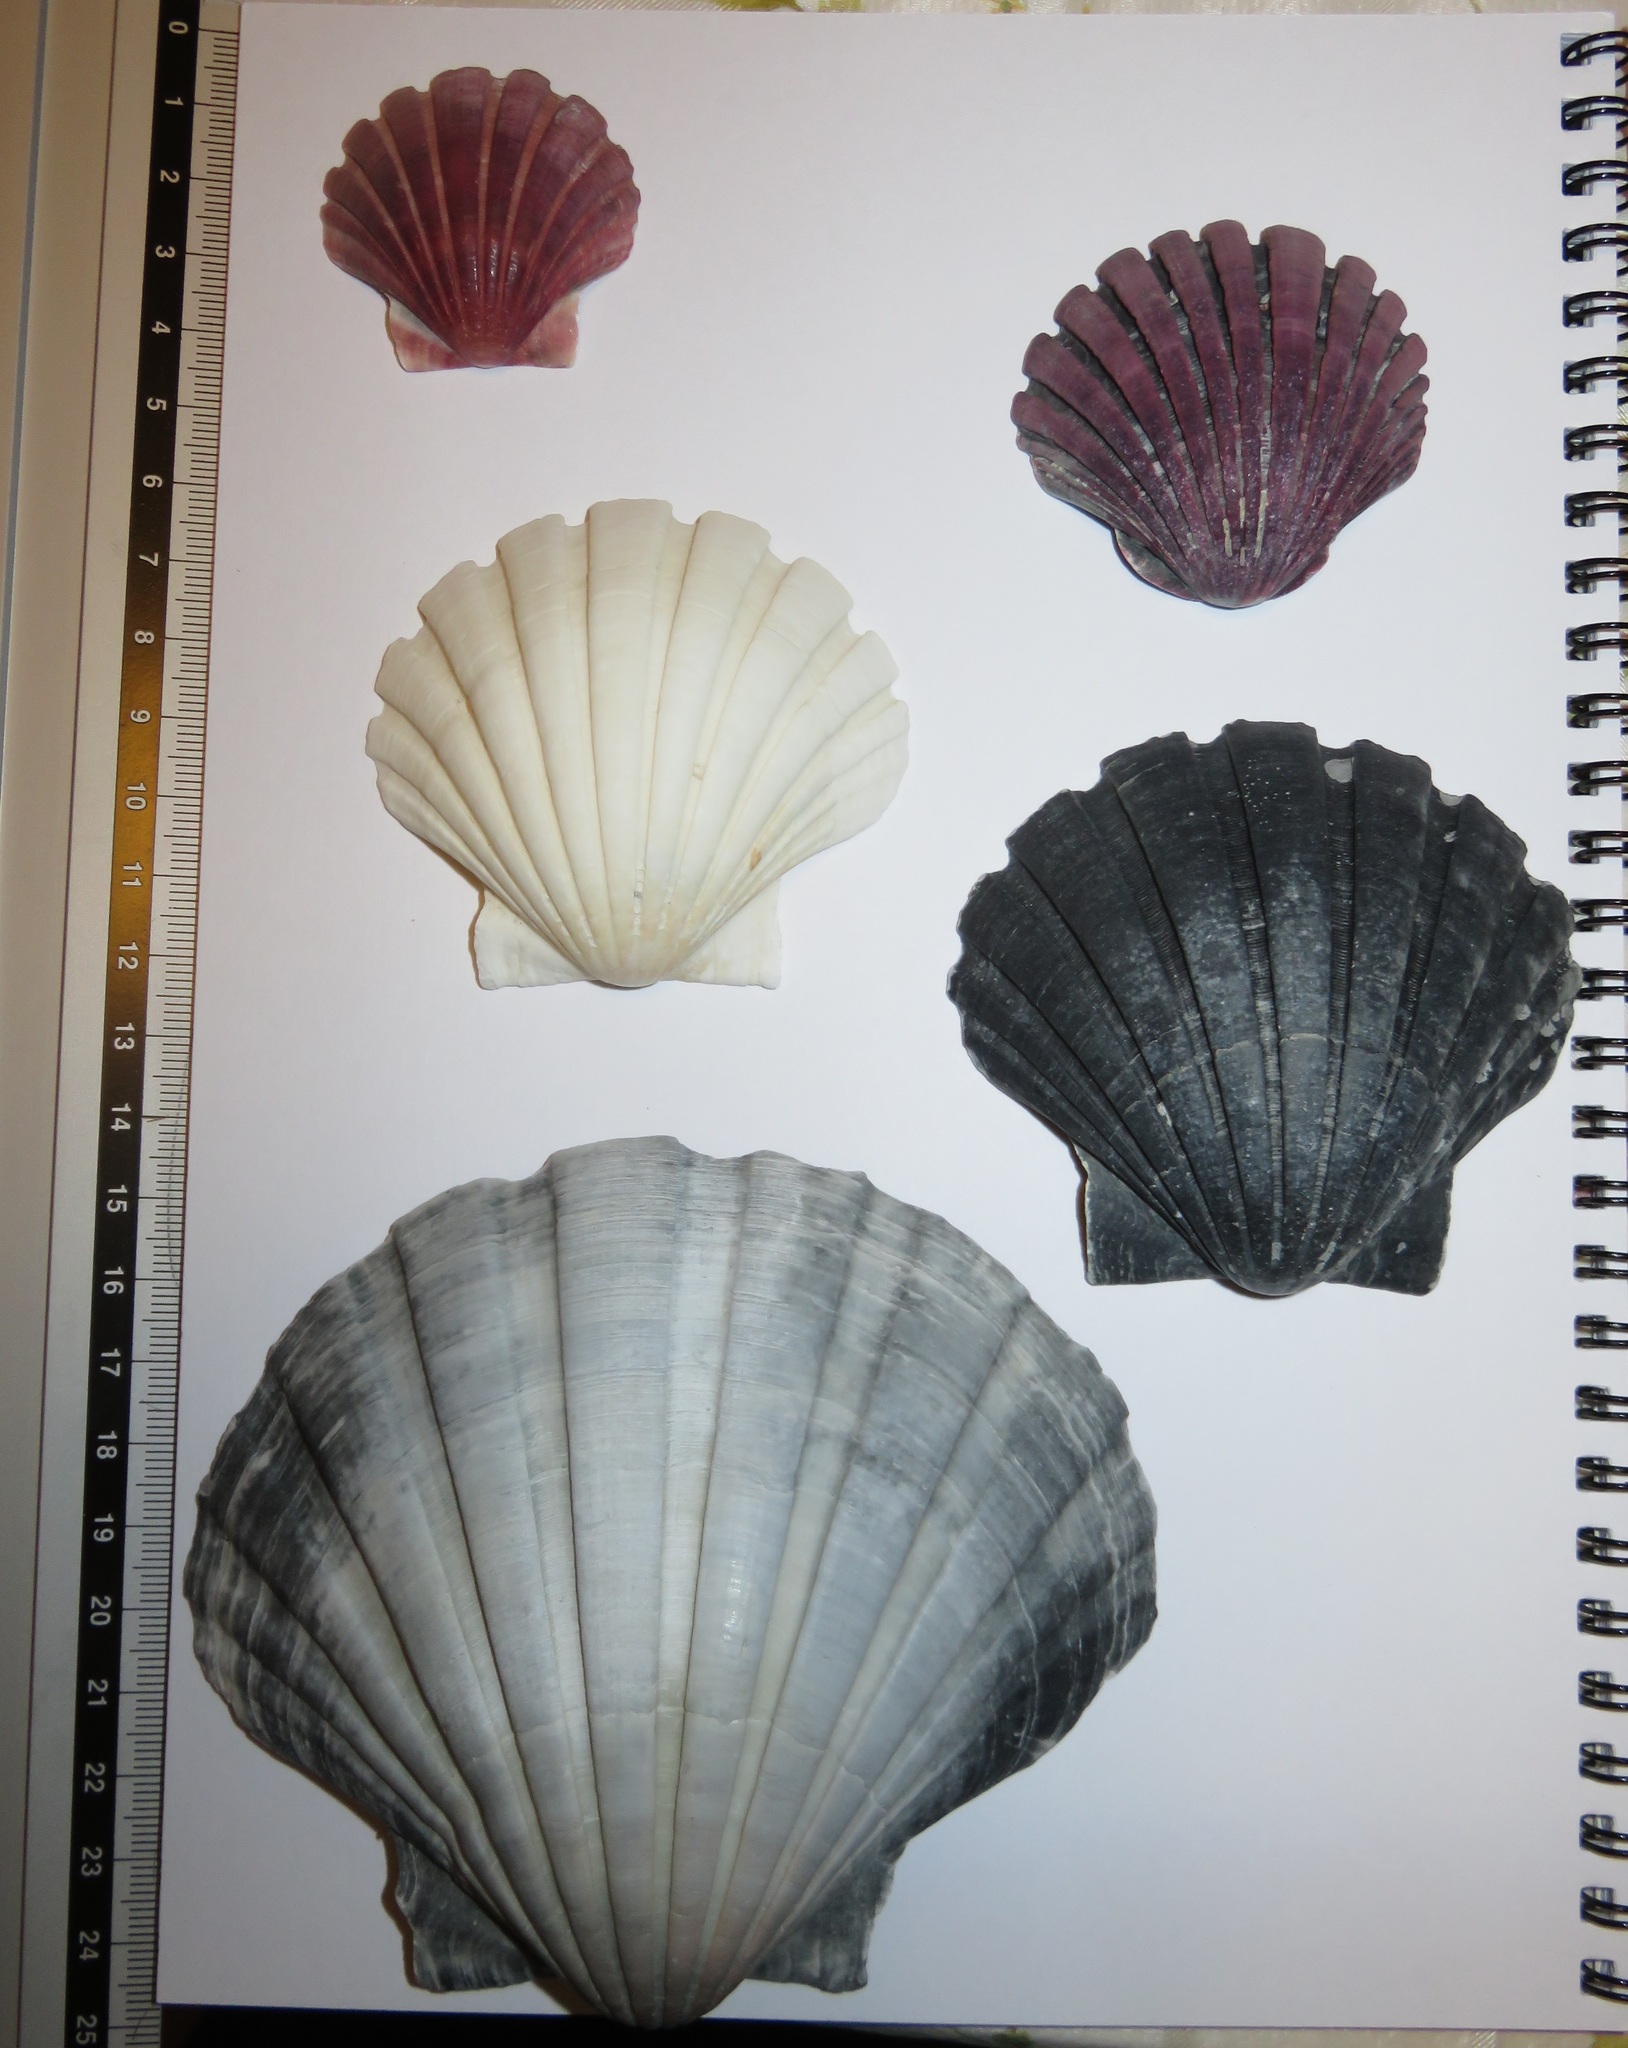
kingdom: Animalia
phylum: Mollusca
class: Bivalvia
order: Pectinida
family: Pectinidae
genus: Pecten
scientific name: Pecten albicans
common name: Japanese baking scallop
